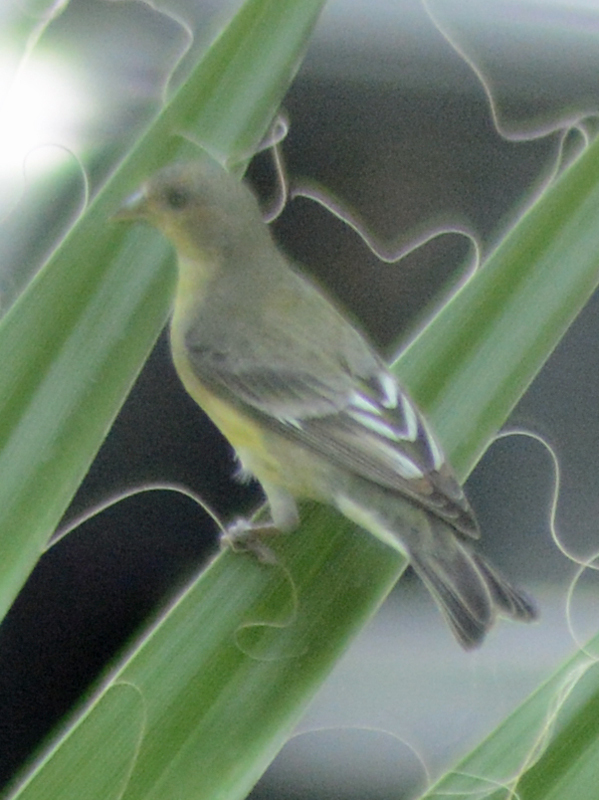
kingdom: Animalia
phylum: Chordata
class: Aves
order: Passeriformes
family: Fringillidae
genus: Spinus
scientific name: Spinus psaltria
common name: Lesser goldfinch
